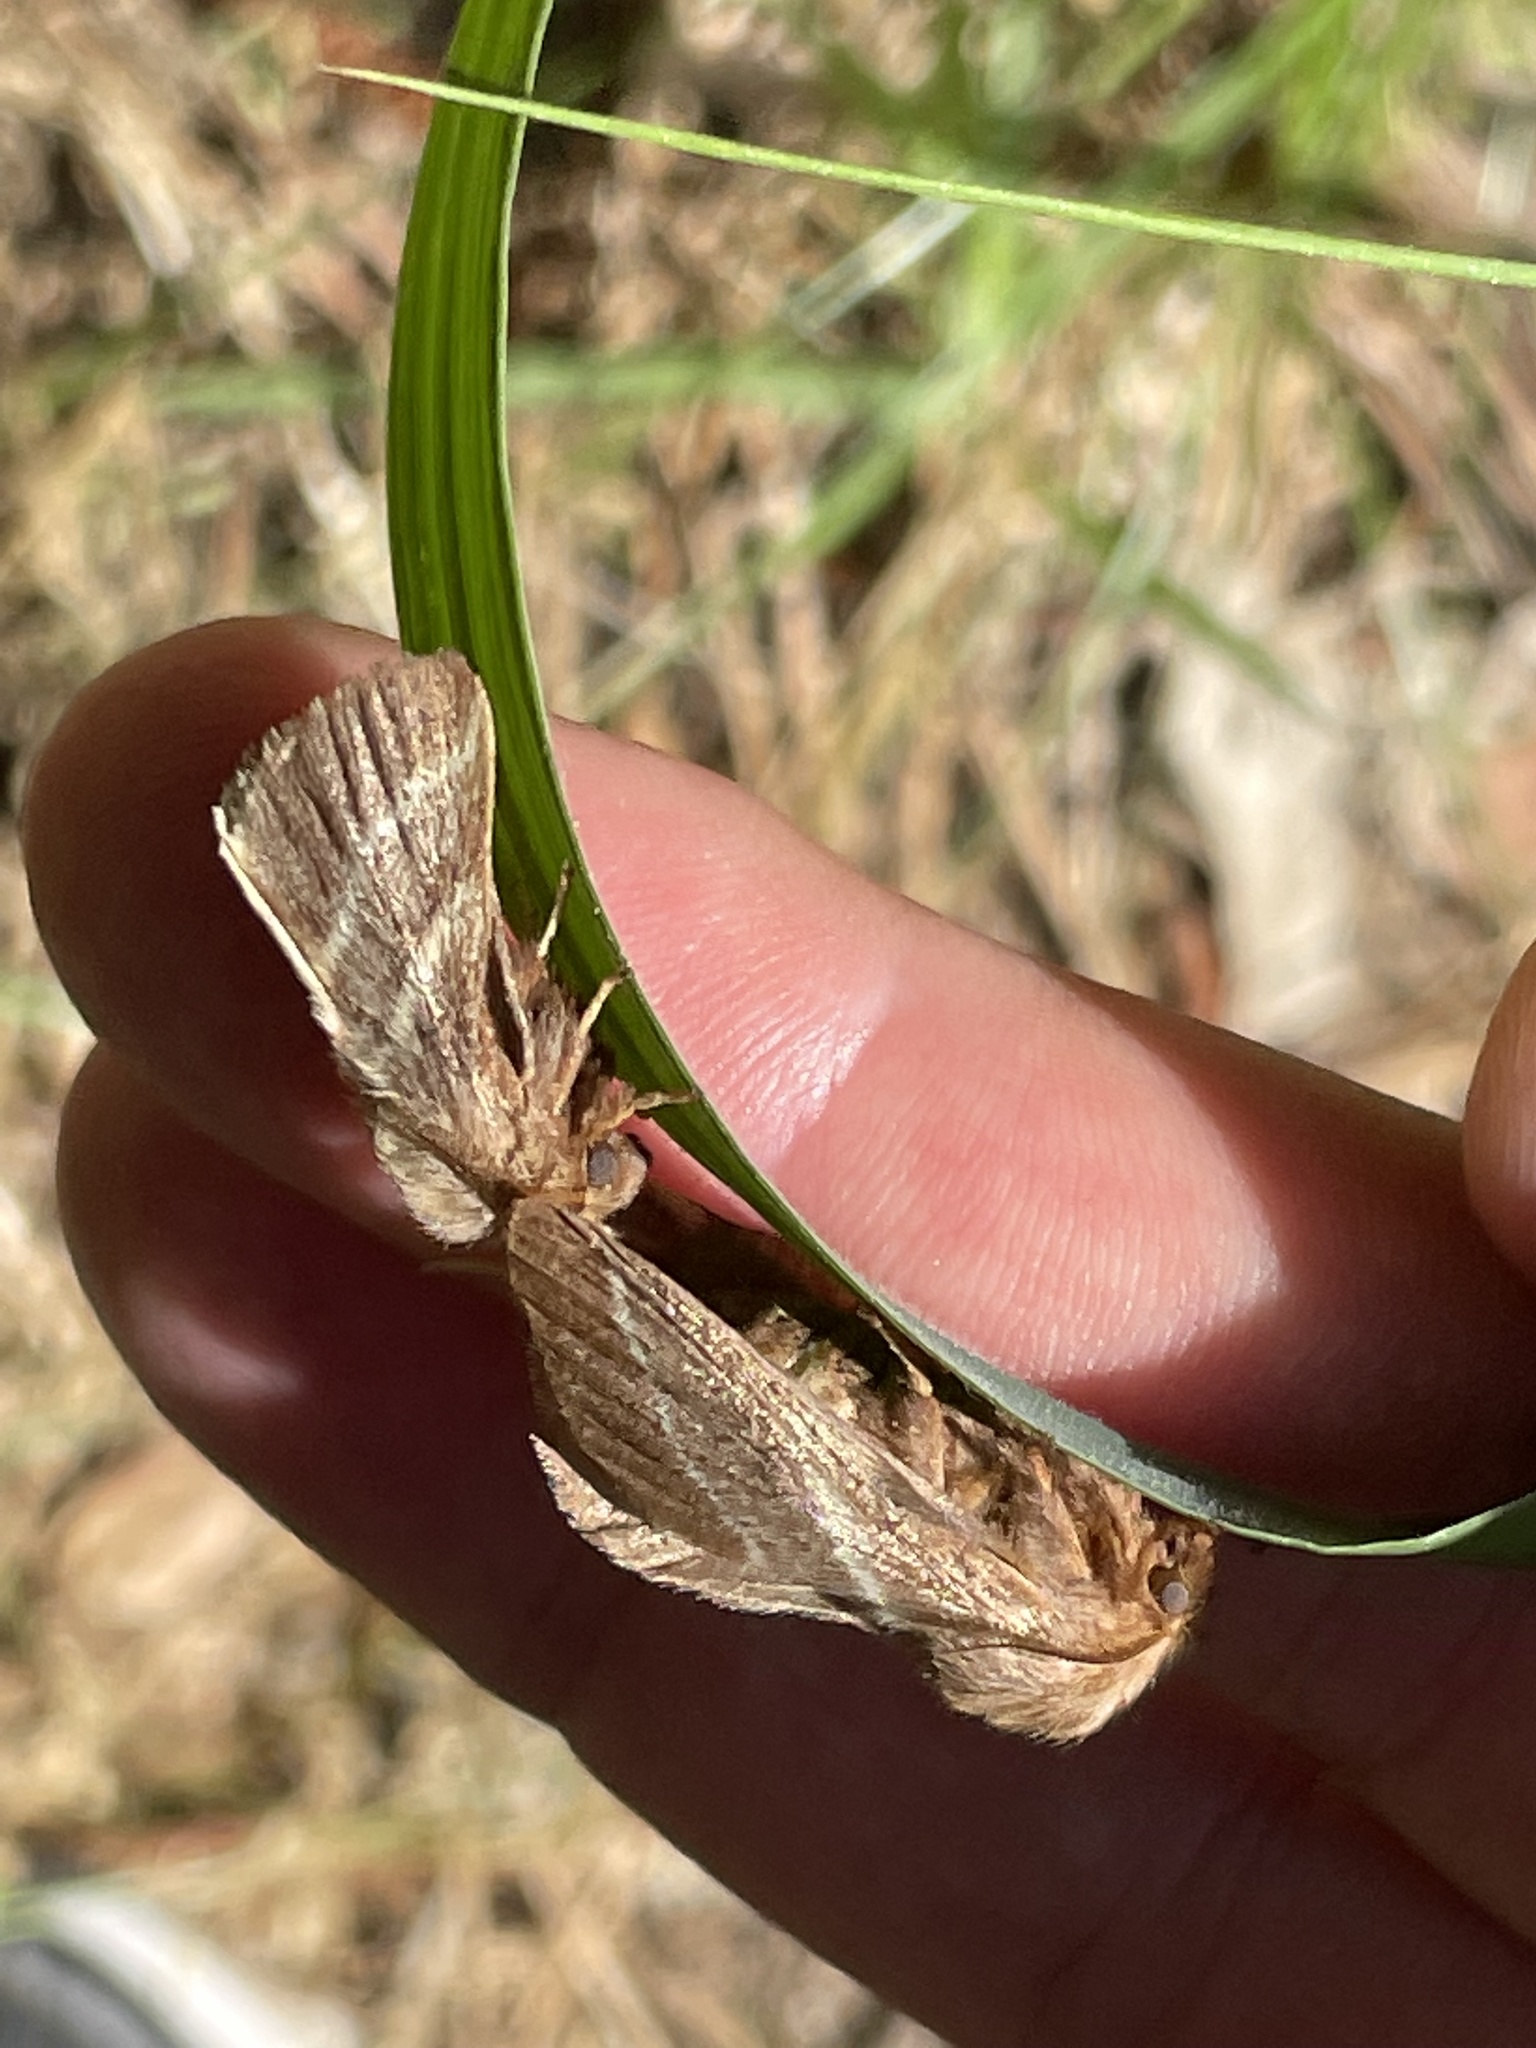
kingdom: Animalia
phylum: Arthropoda
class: Insecta
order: Lepidoptera
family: Lasiocampidae
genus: Malacosoma
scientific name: Malacosoma americana
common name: Eastern tent caterpillar moth
